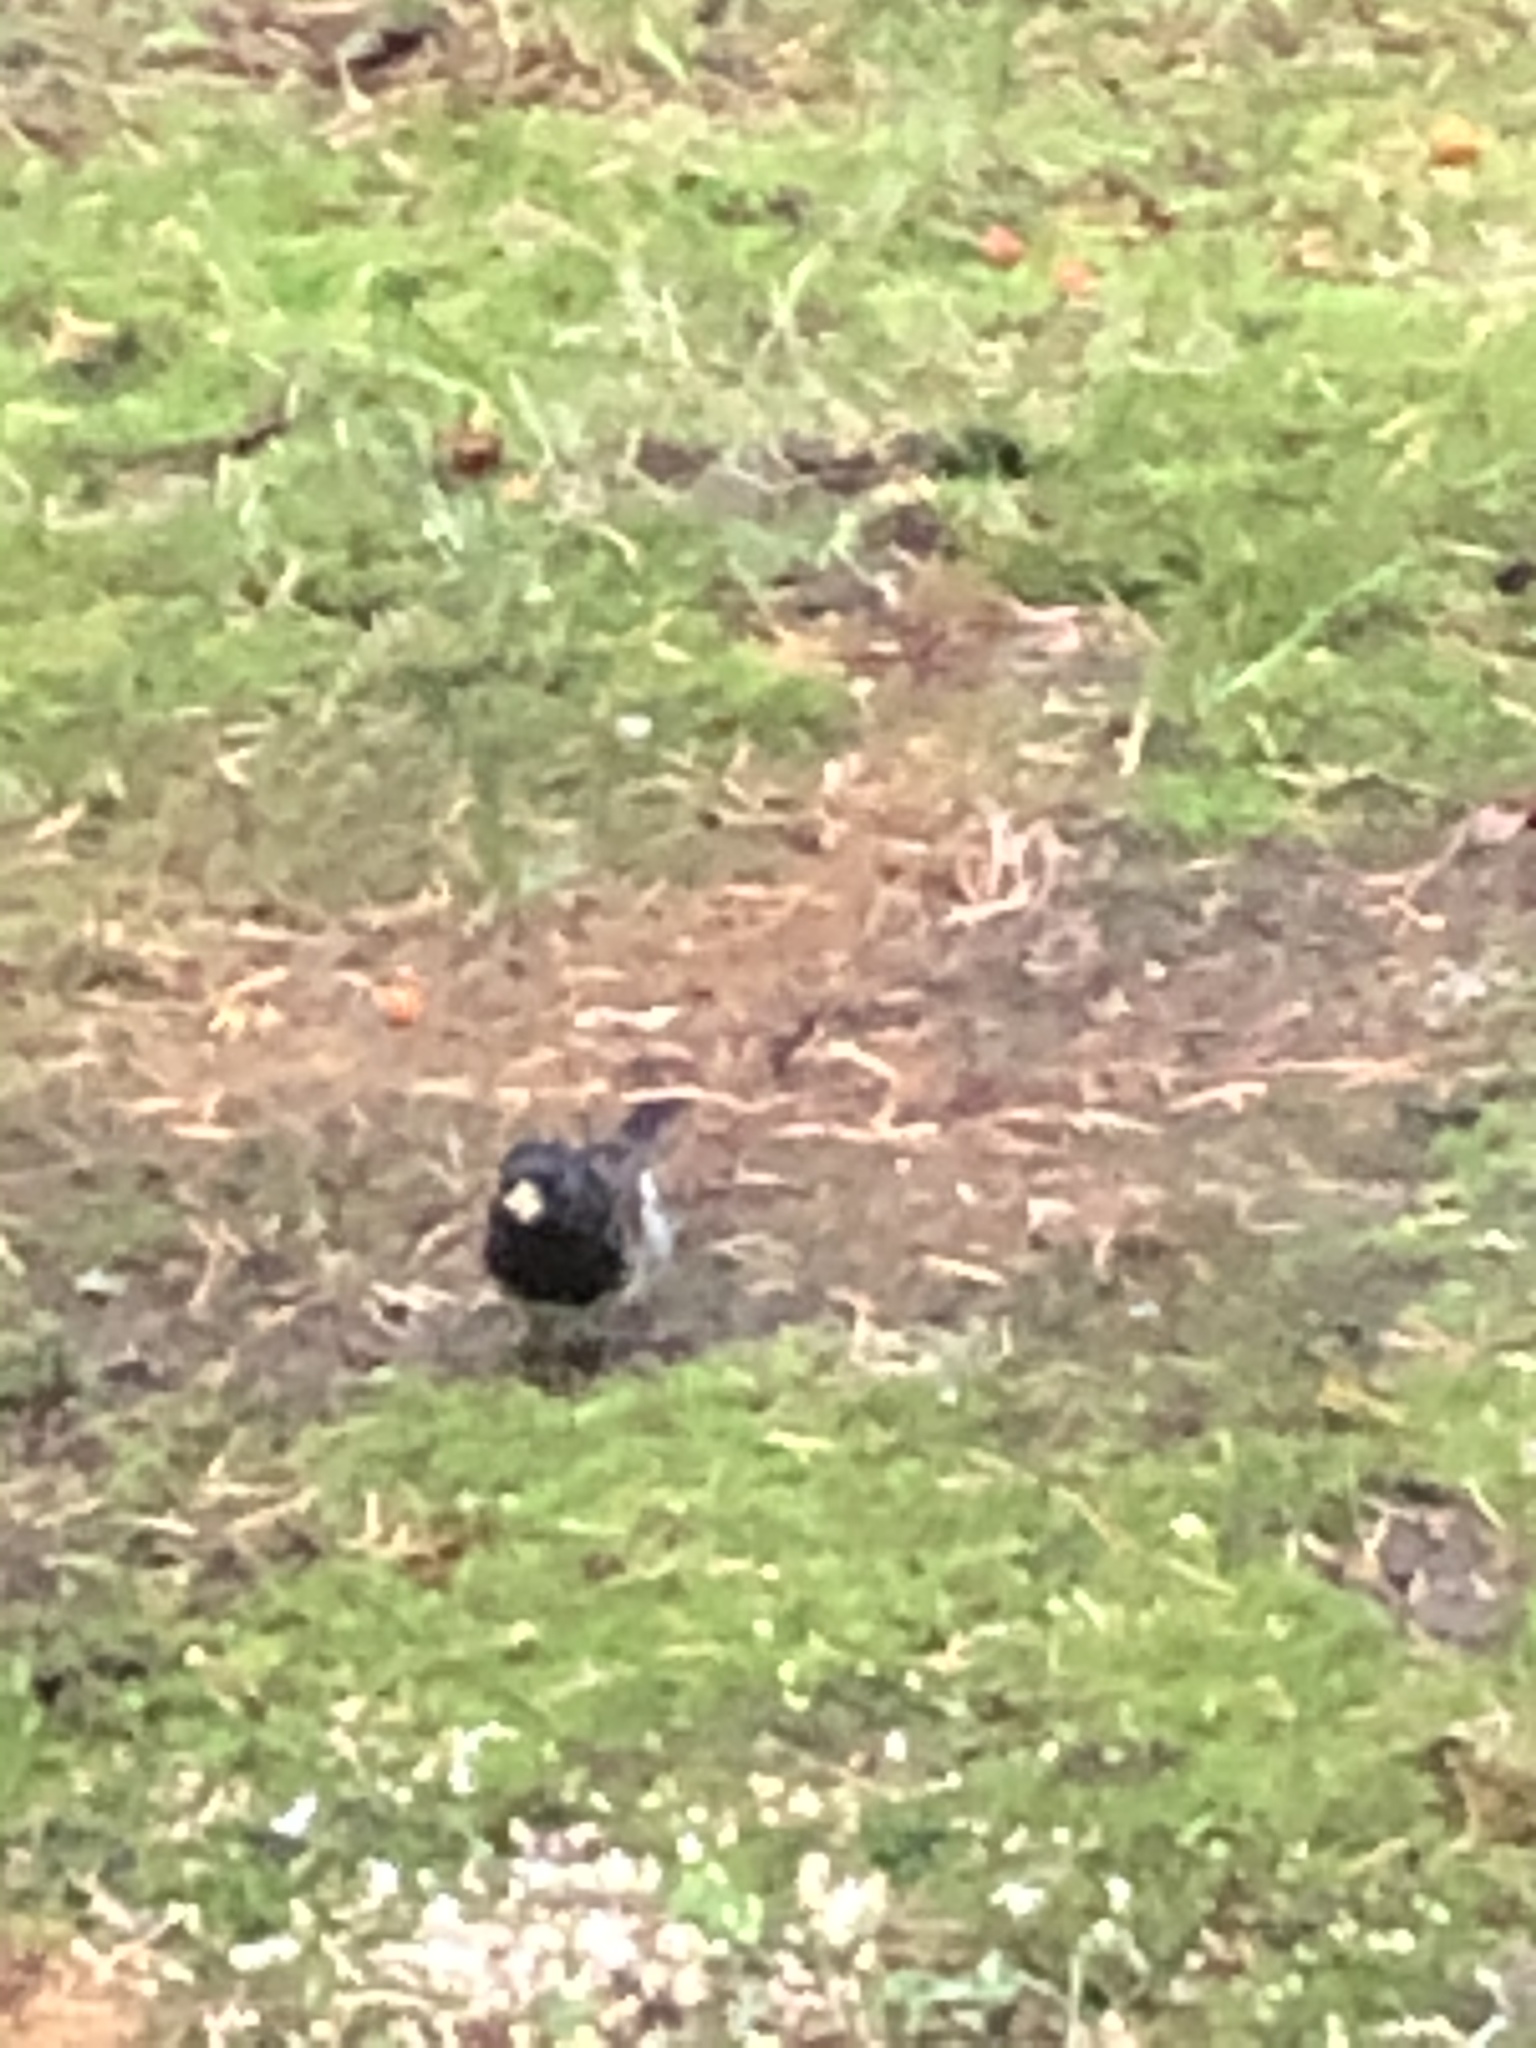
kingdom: Animalia
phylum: Chordata
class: Aves
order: Passeriformes
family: Passerellidae
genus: Junco
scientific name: Junco hyemalis
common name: Dark-eyed junco
